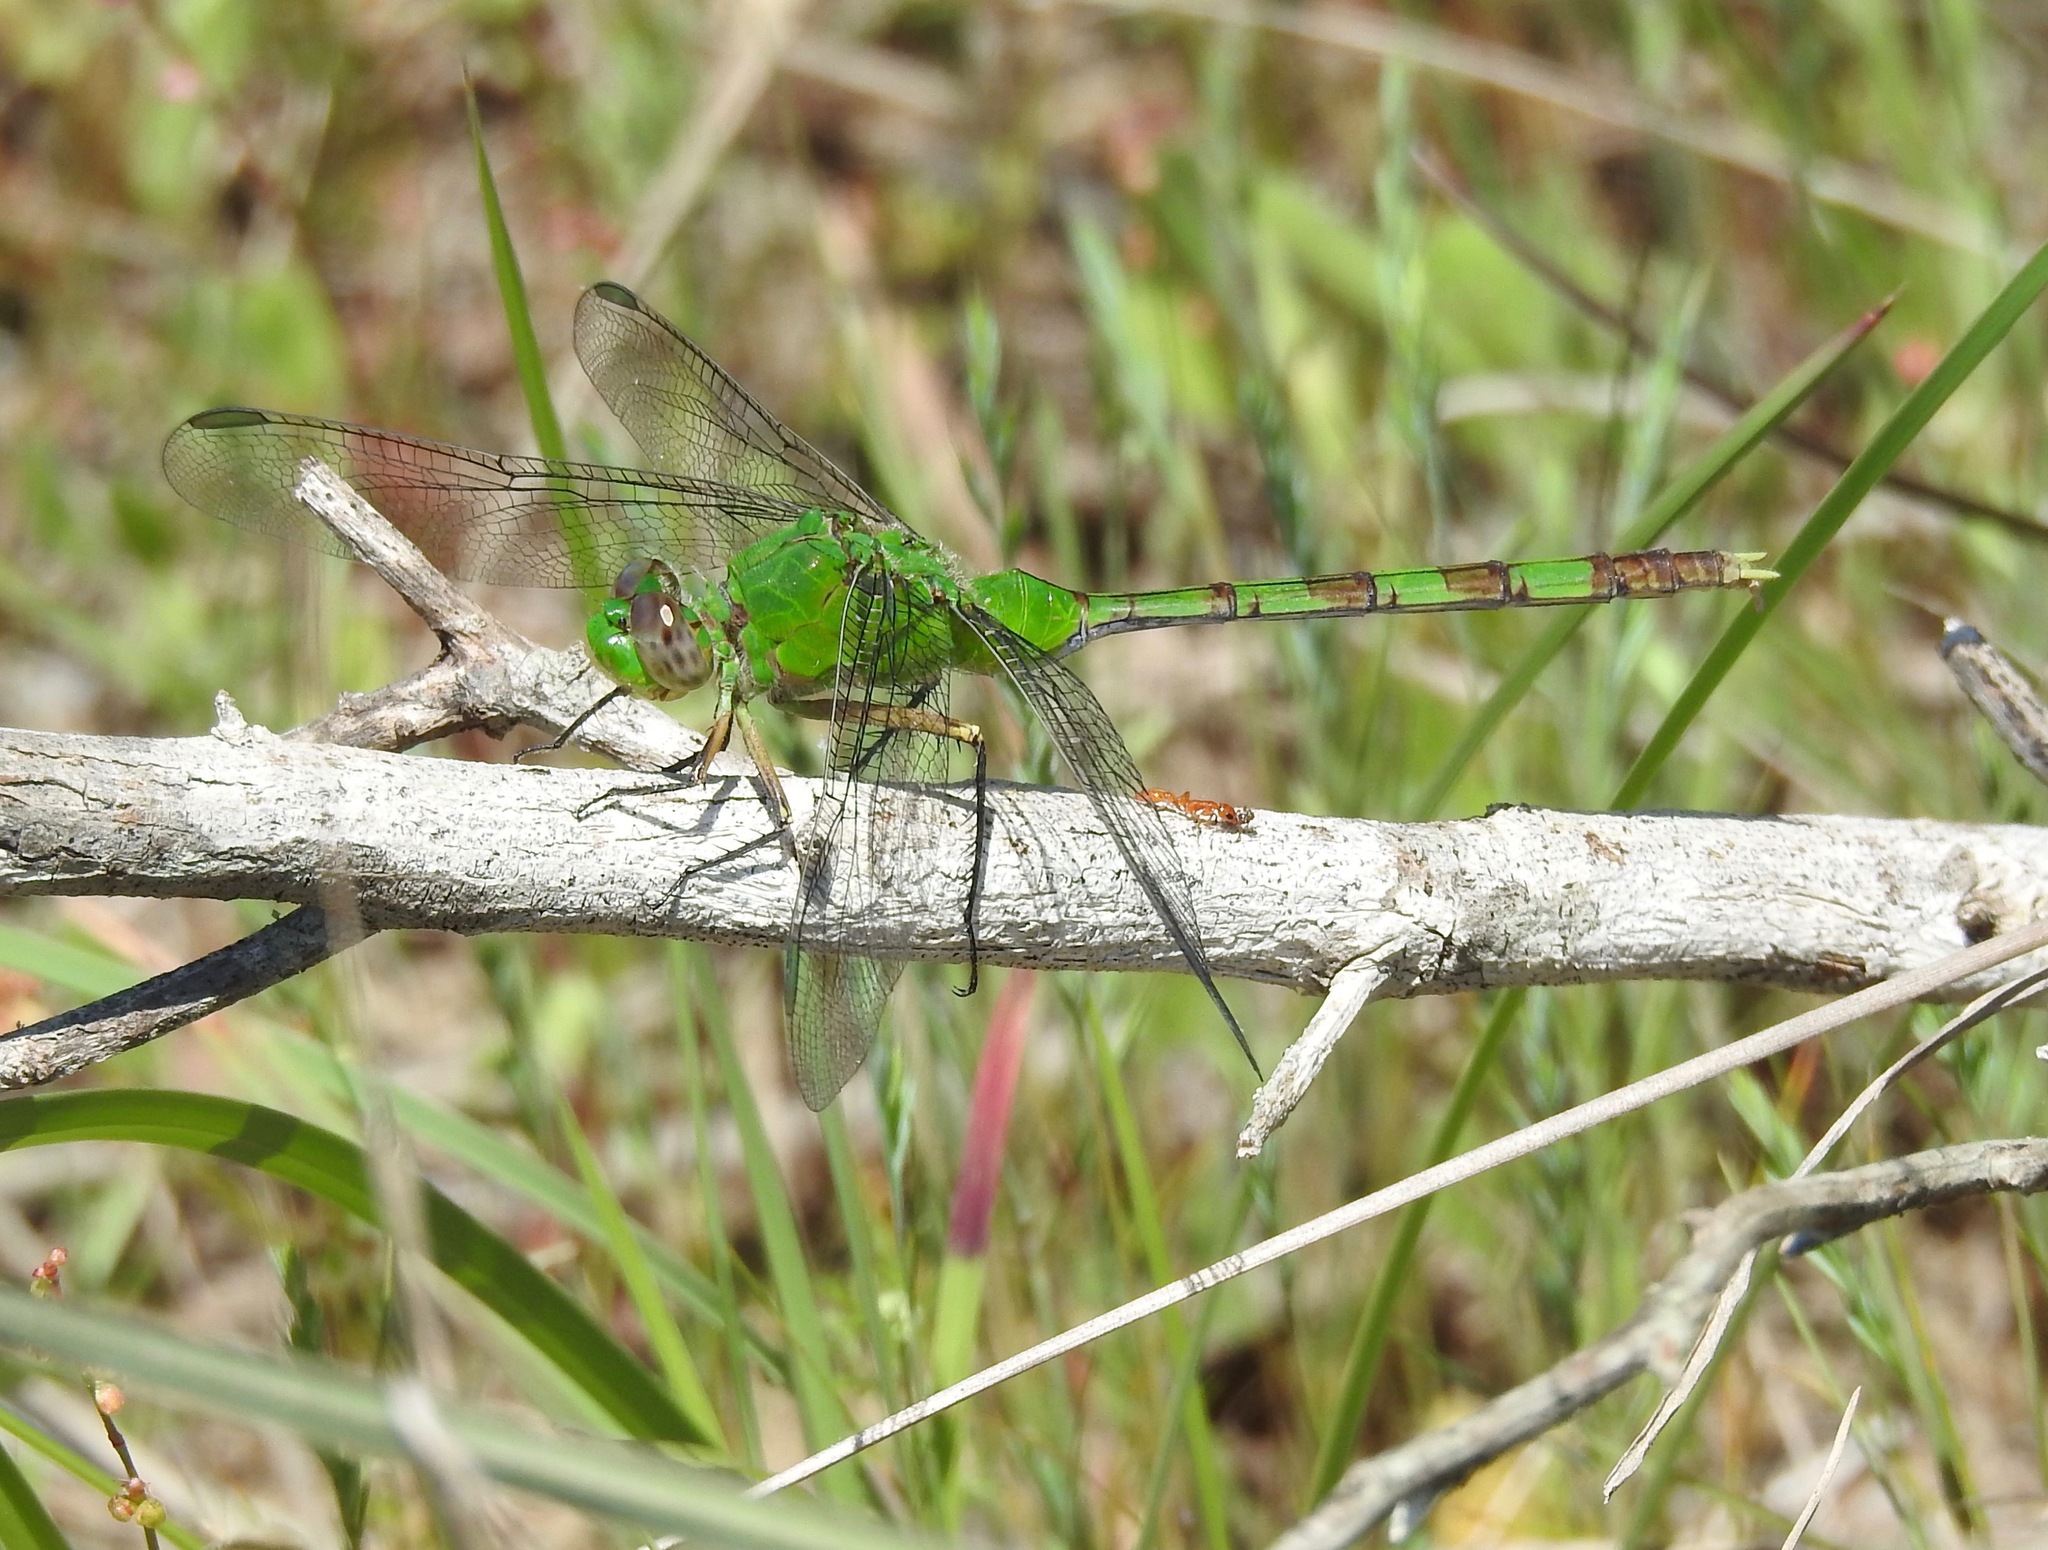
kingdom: Animalia
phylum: Arthropoda
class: Insecta
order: Odonata
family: Libellulidae
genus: Erythemis
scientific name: Erythemis vesiculosa
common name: Great pondhawk
